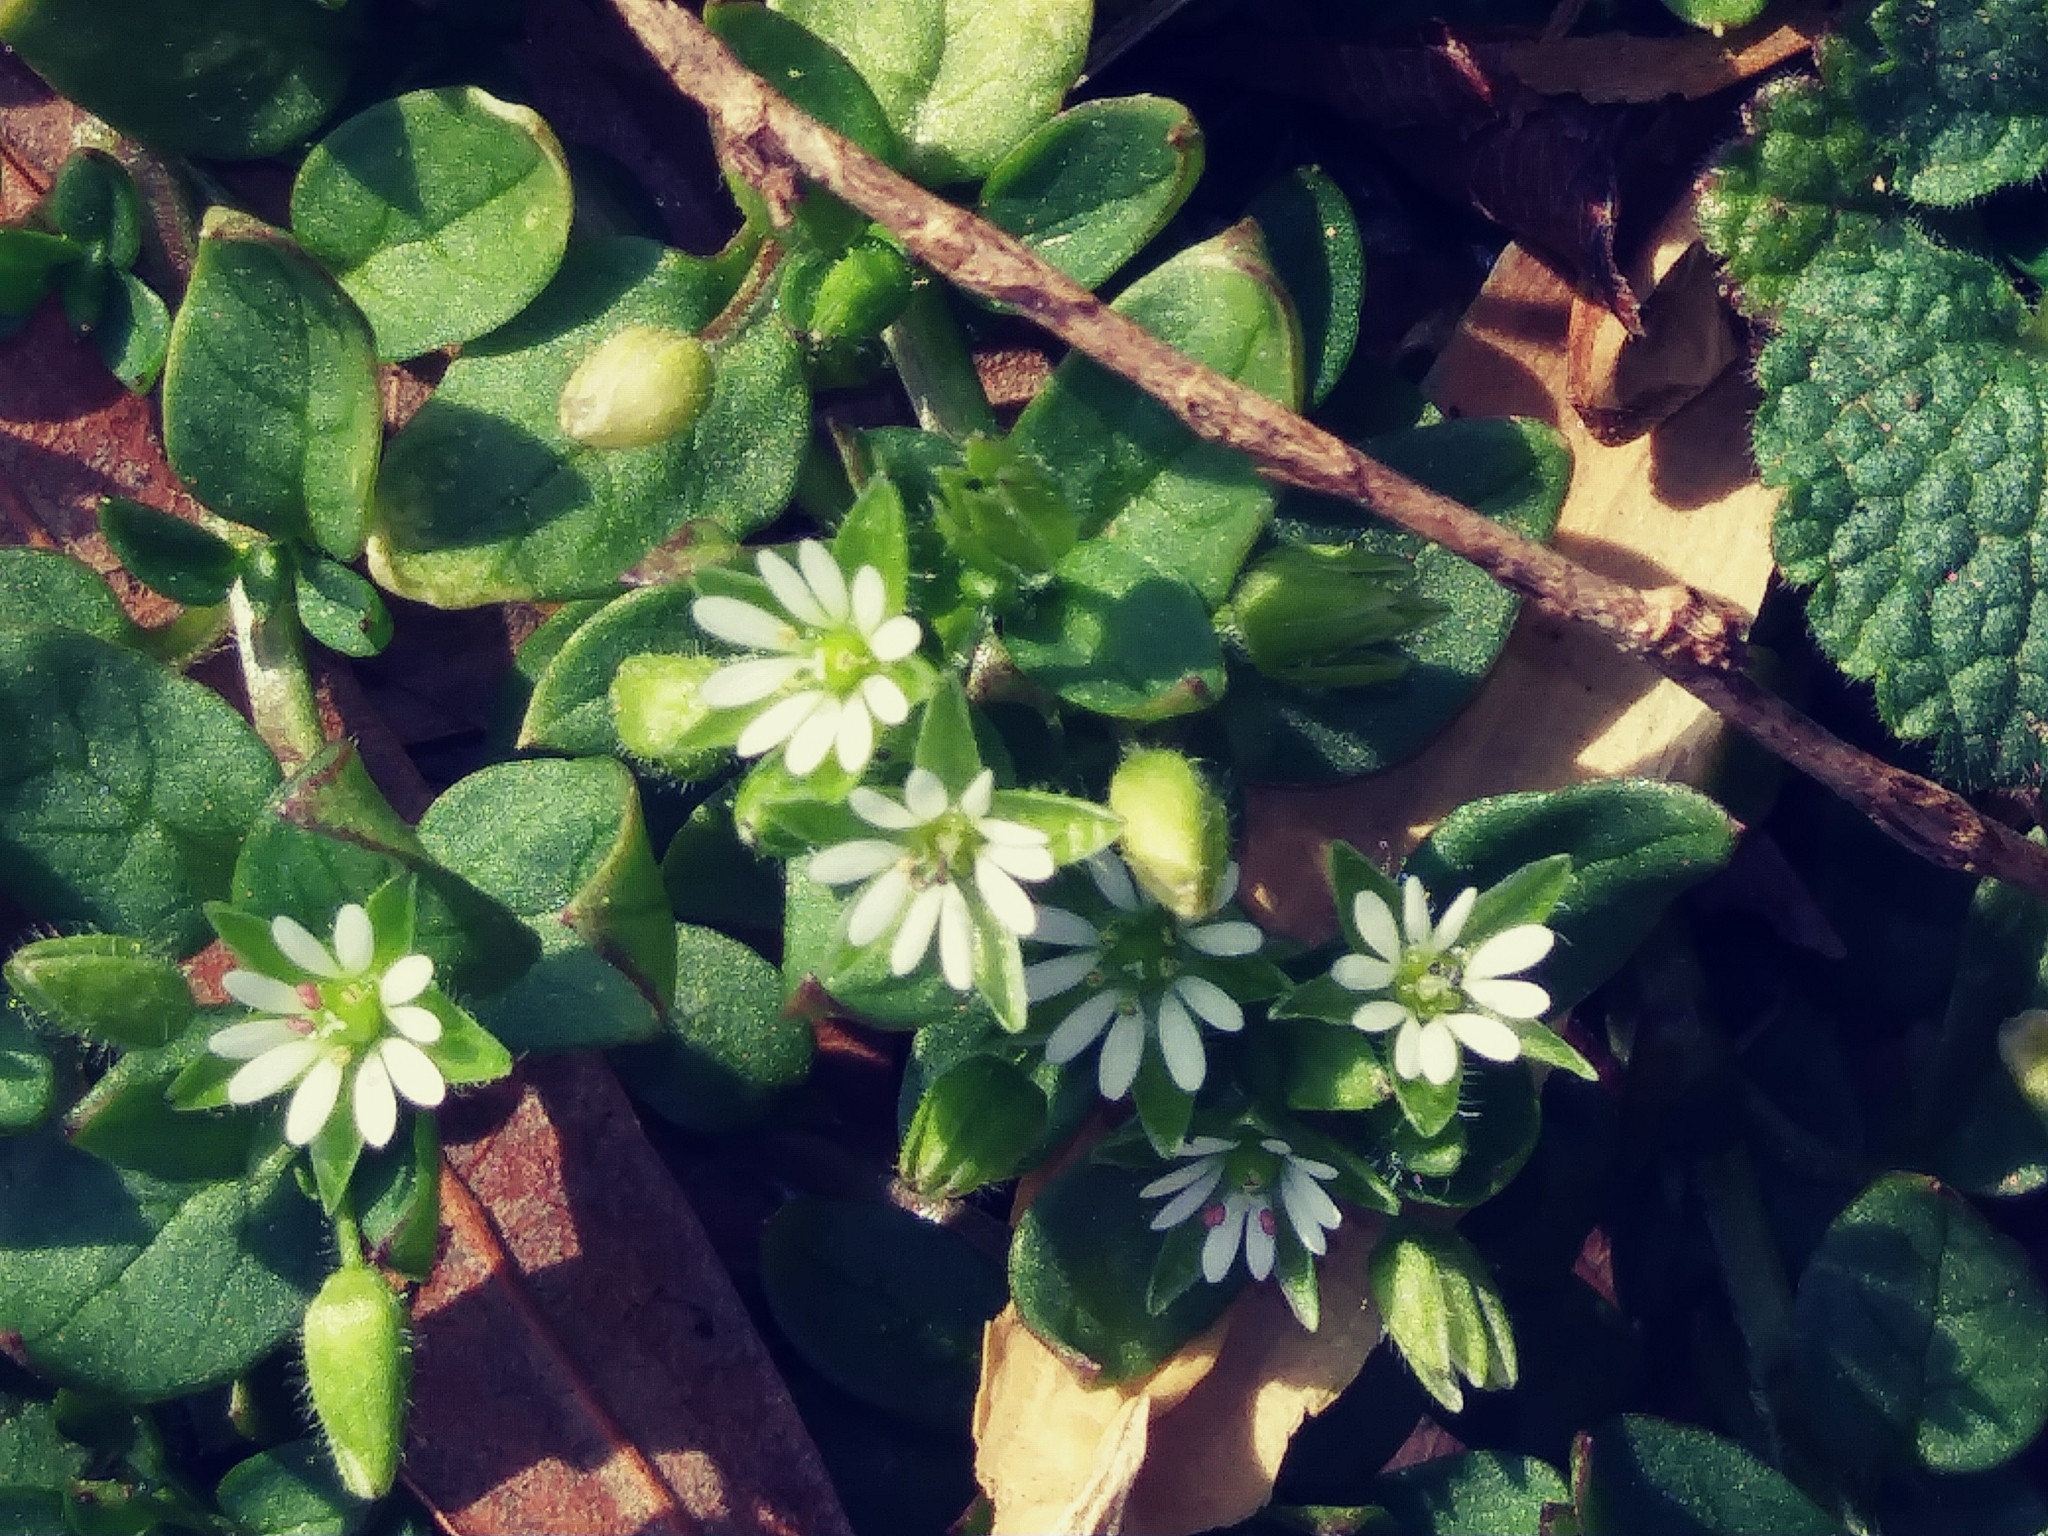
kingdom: Plantae
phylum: Tracheophyta
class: Magnoliopsida
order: Caryophyllales
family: Caryophyllaceae
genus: Stellaria
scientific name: Stellaria media
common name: Common chickweed
